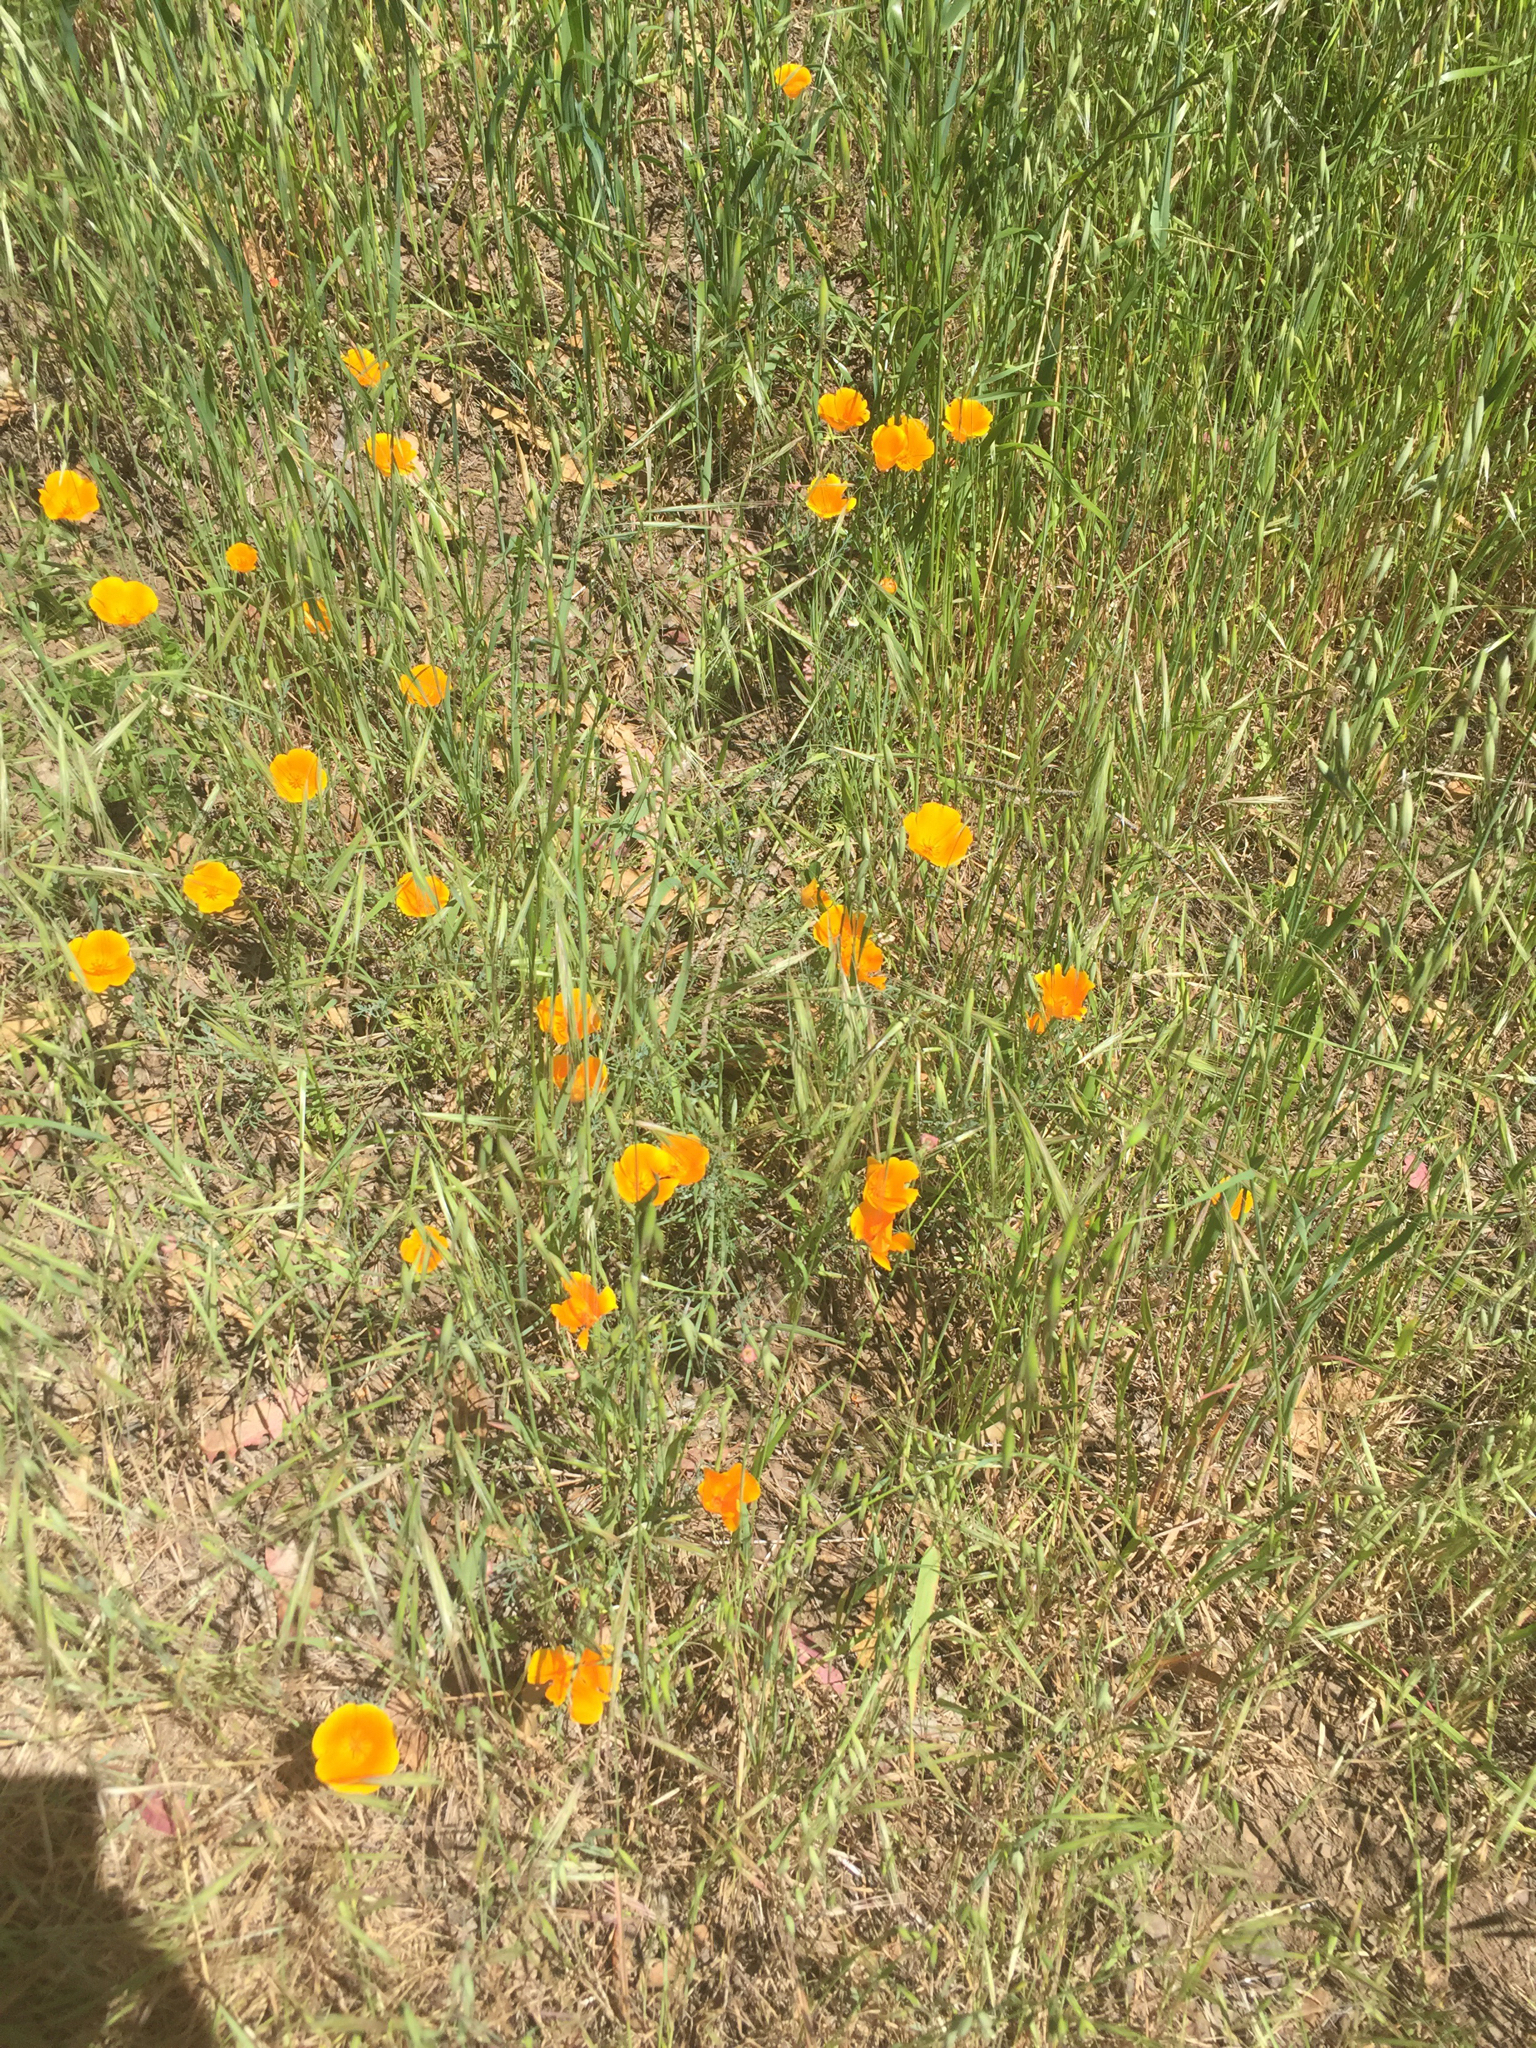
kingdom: Plantae
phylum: Tracheophyta
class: Magnoliopsida
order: Ranunculales
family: Papaveraceae
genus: Eschscholzia
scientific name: Eschscholzia californica
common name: California poppy
